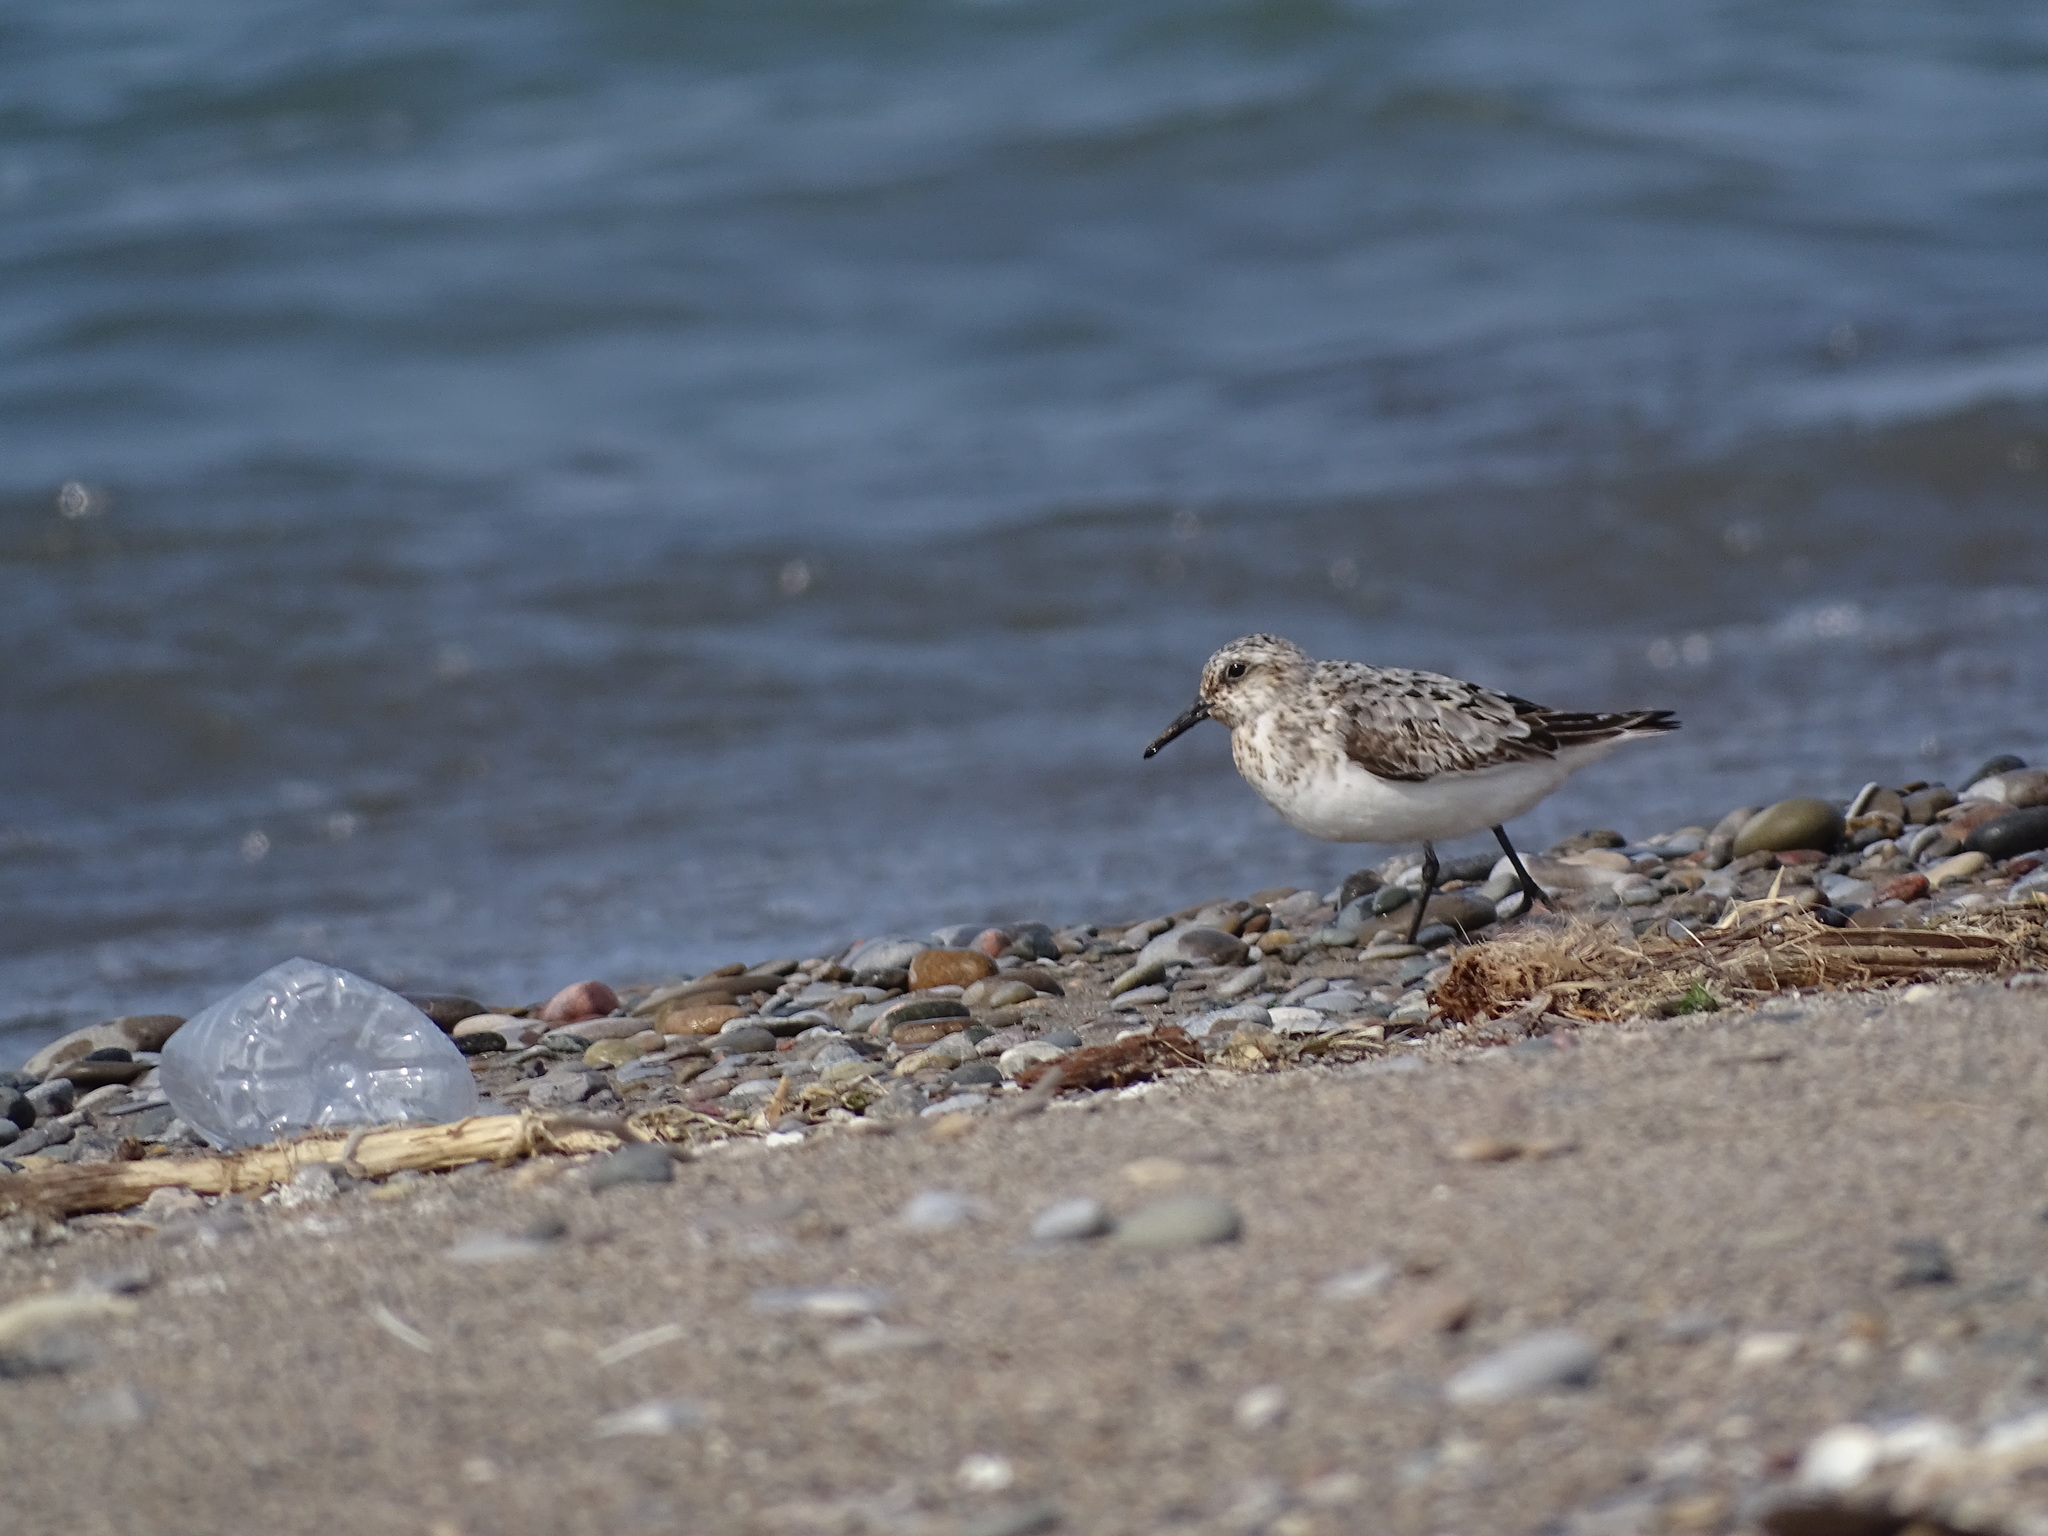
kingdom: Animalia
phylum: Chordata
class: Aves
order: Charadriiformes
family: Scolopacidae
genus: Calidris
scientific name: Calidris alba
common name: Sanderling
